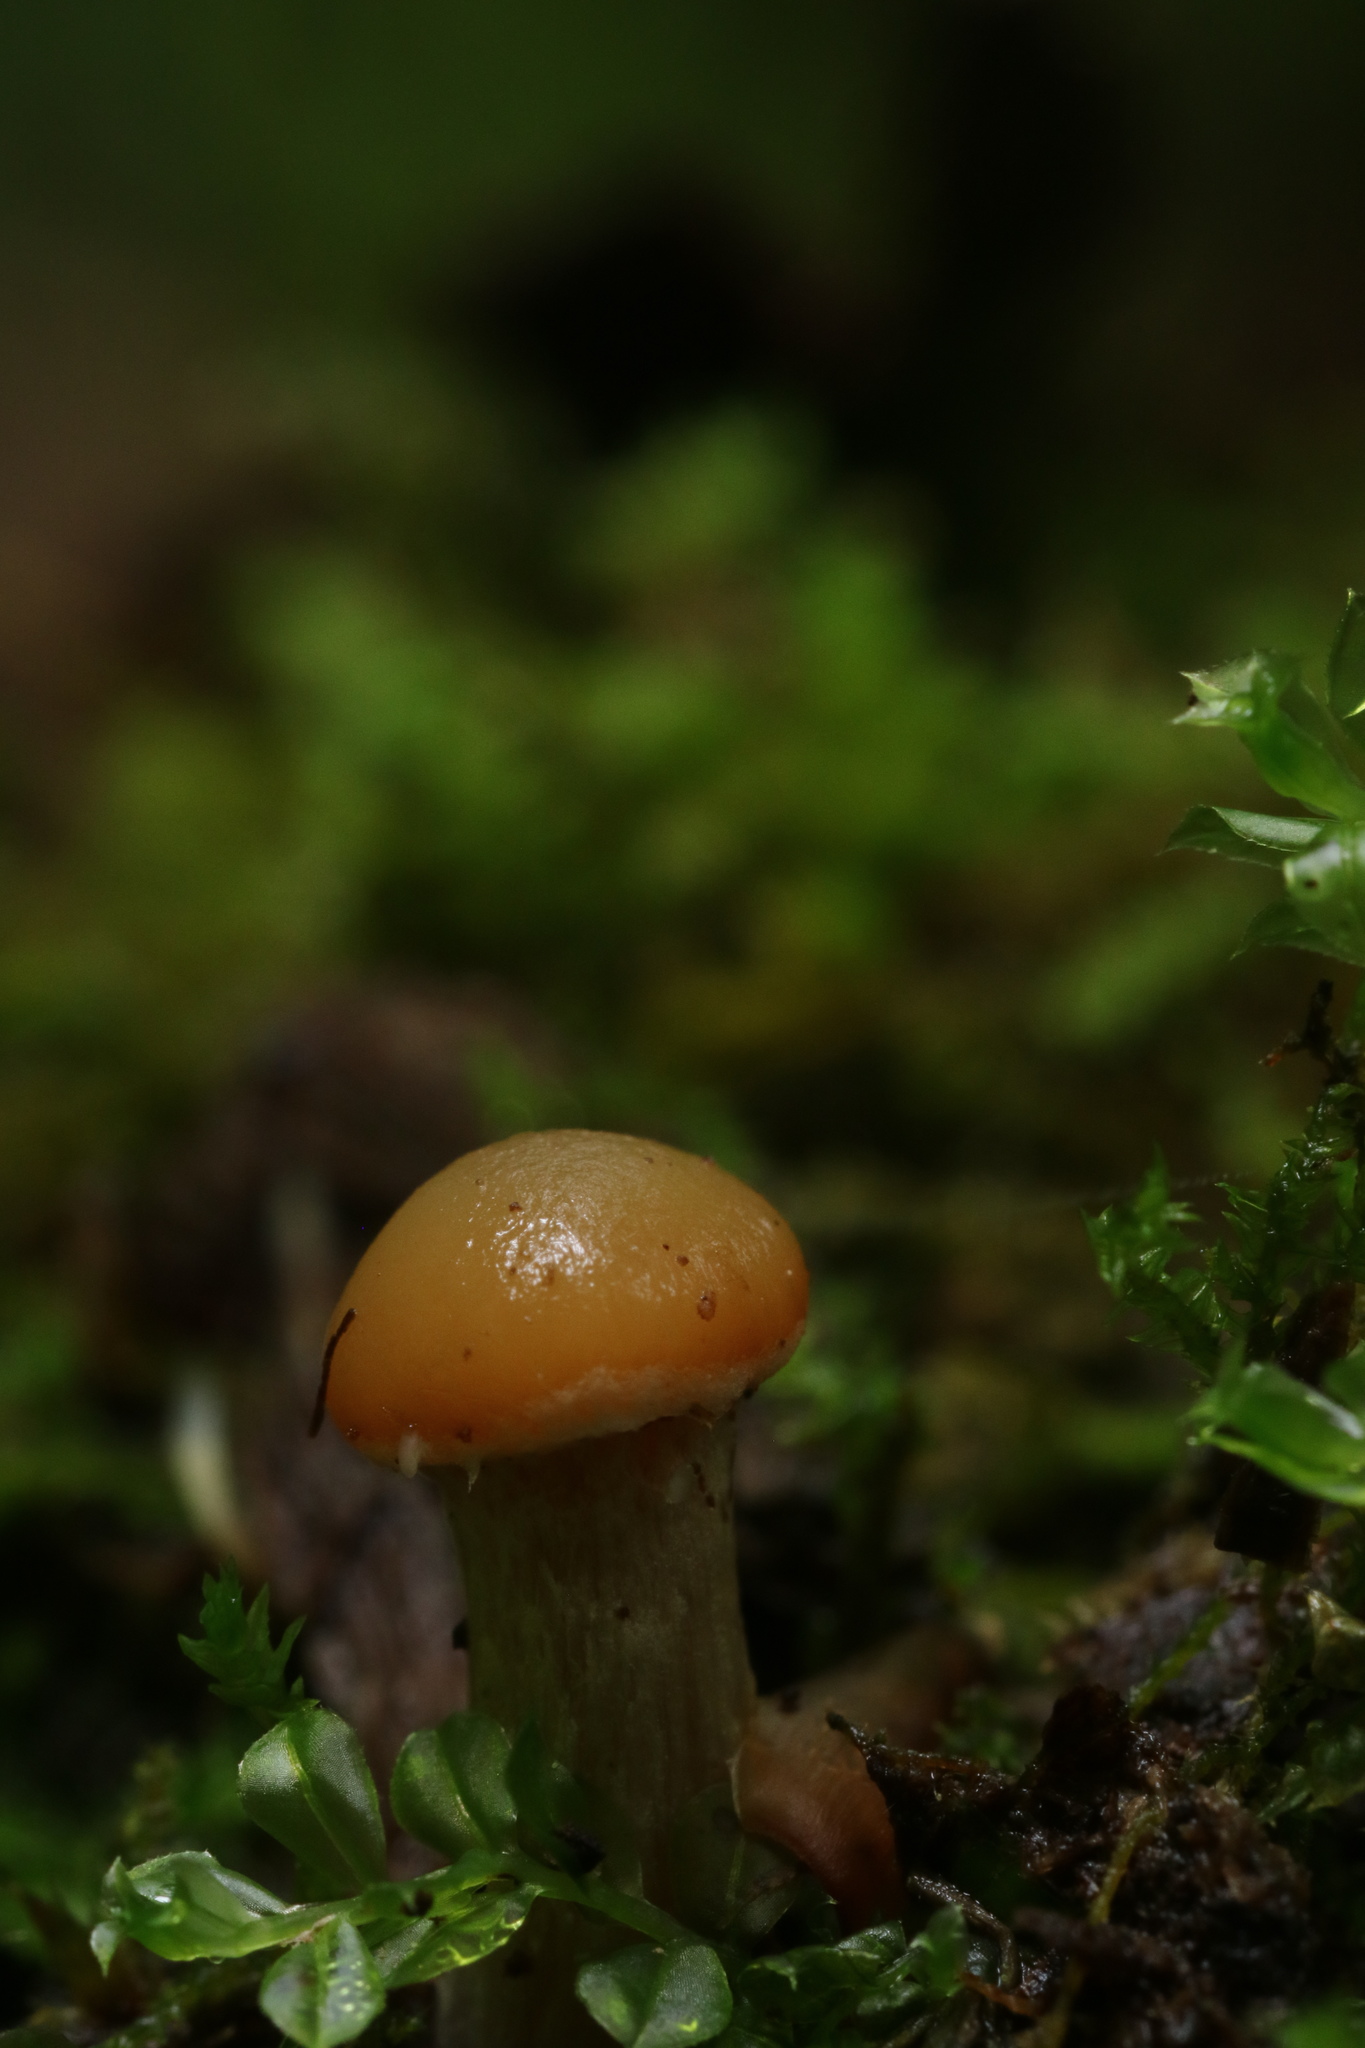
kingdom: Fungi
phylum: Basidiomycota
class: Agaricomycetes
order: Agaricales
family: Strophariaceae
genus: Kuehneromyces
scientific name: Kuehneromyces marginellus
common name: Sheathed woodtuft
